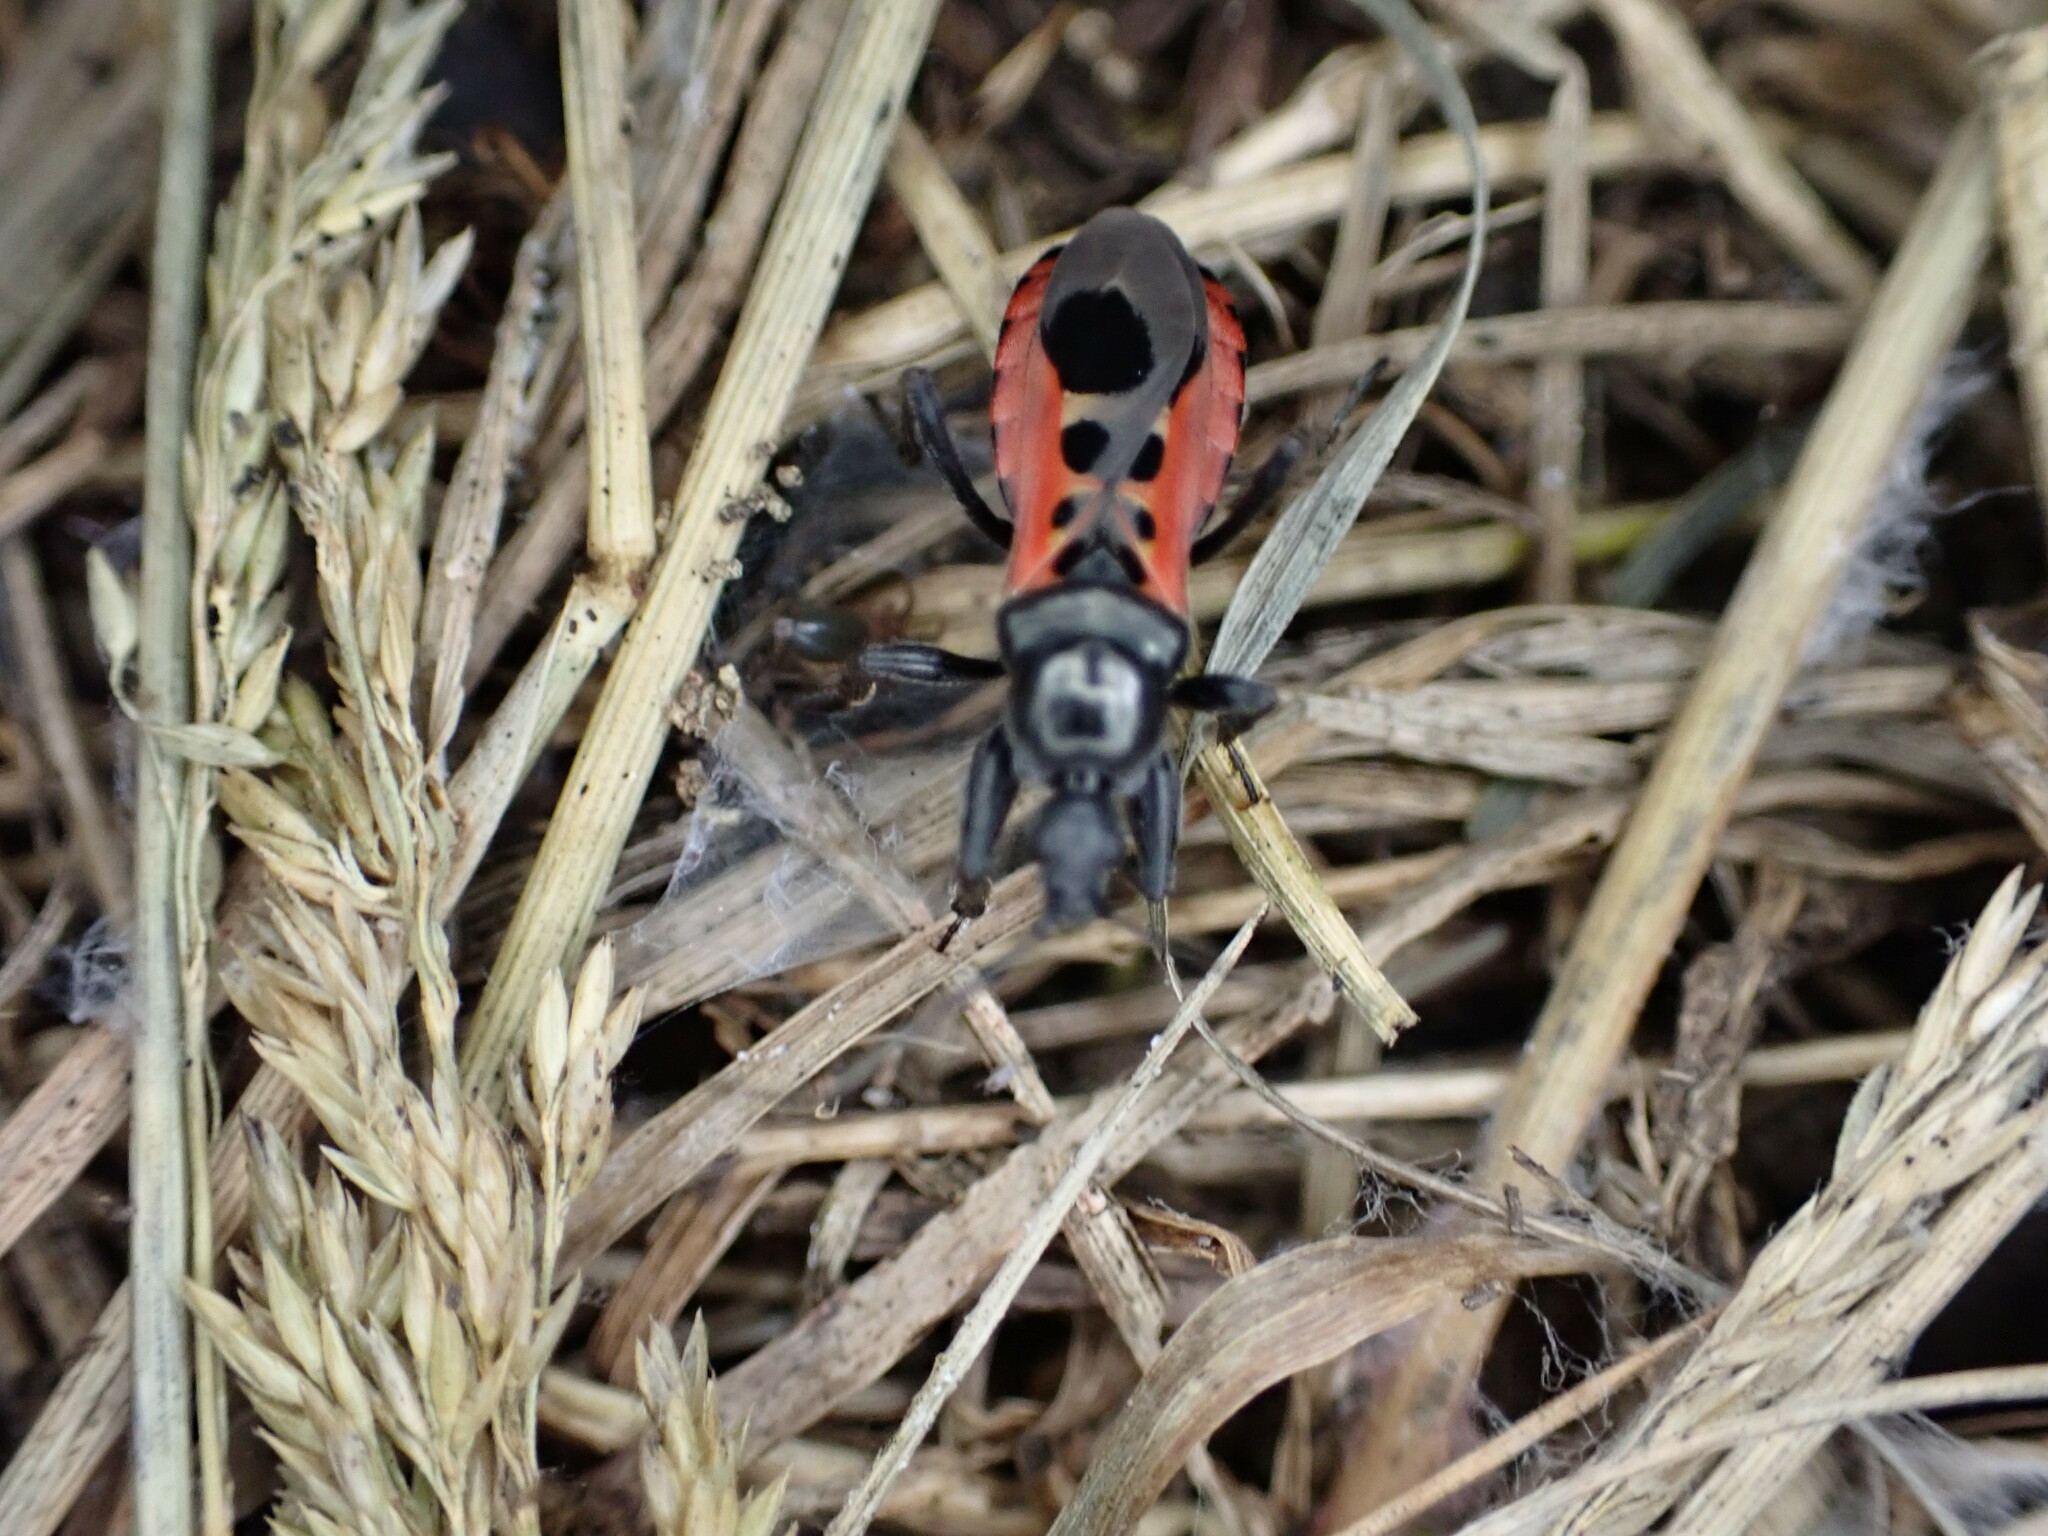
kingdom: Animalia
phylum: Arthropoda
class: Insecta
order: Hemiptera
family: Reduviidae
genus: Peirates
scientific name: Peirates stridulus
